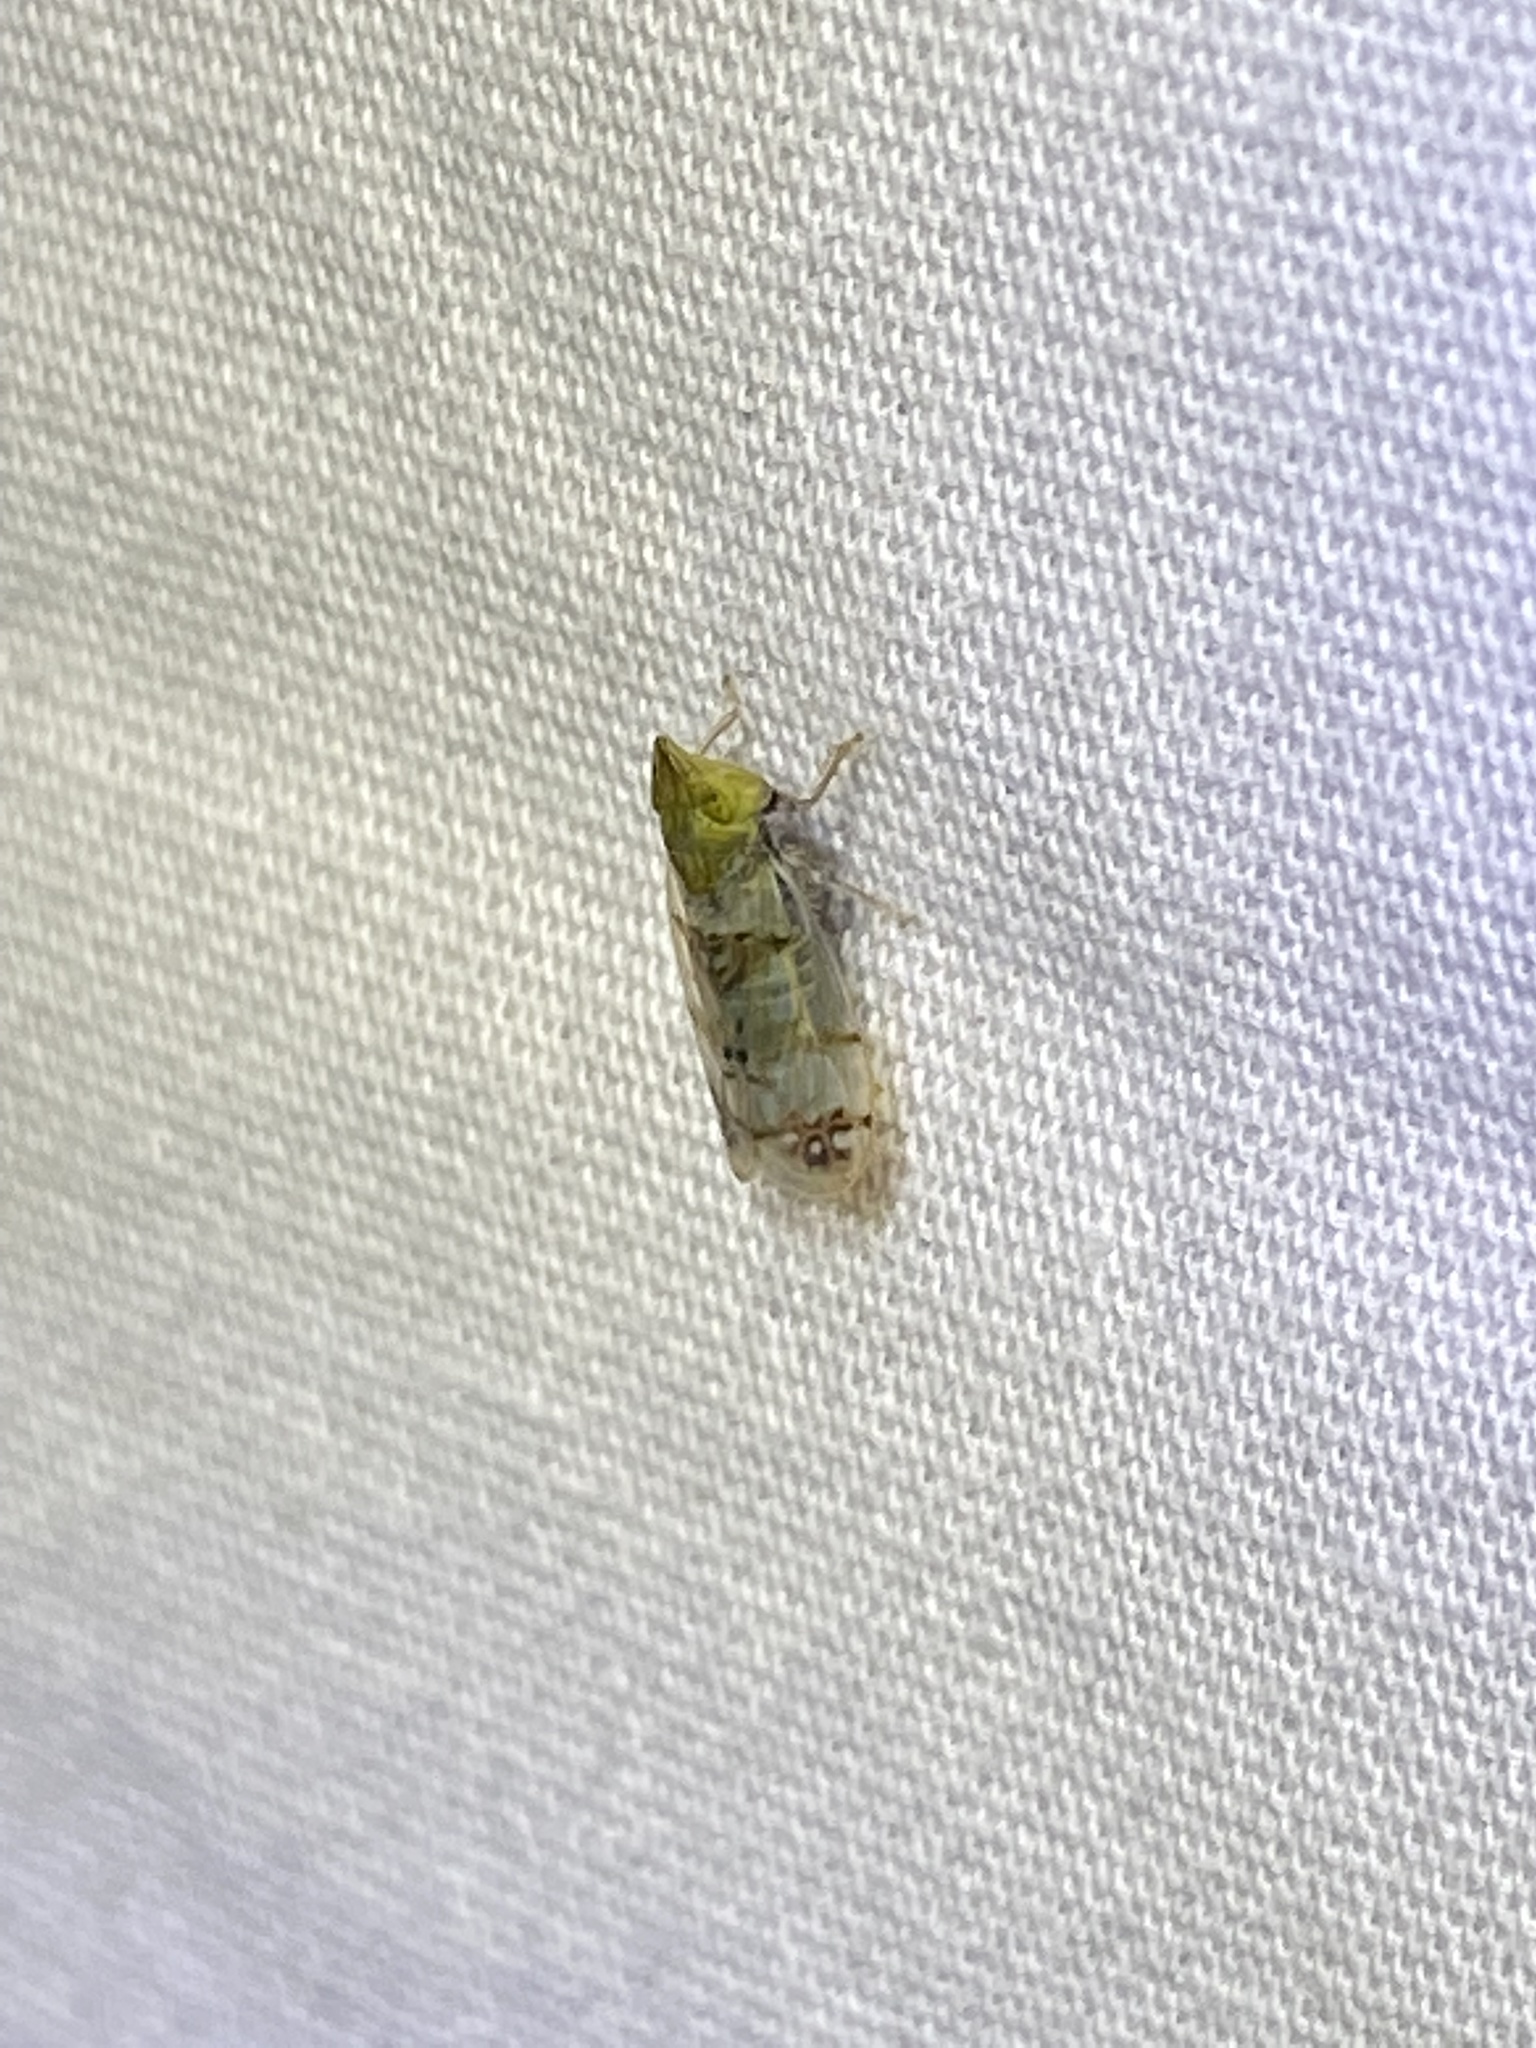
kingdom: Animalia
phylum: Arthropoda
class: Insecta
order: Hemiptera
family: Cicadellidae
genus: Japananus
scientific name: Japananus hyalinus
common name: The japanese maple leafhopper
